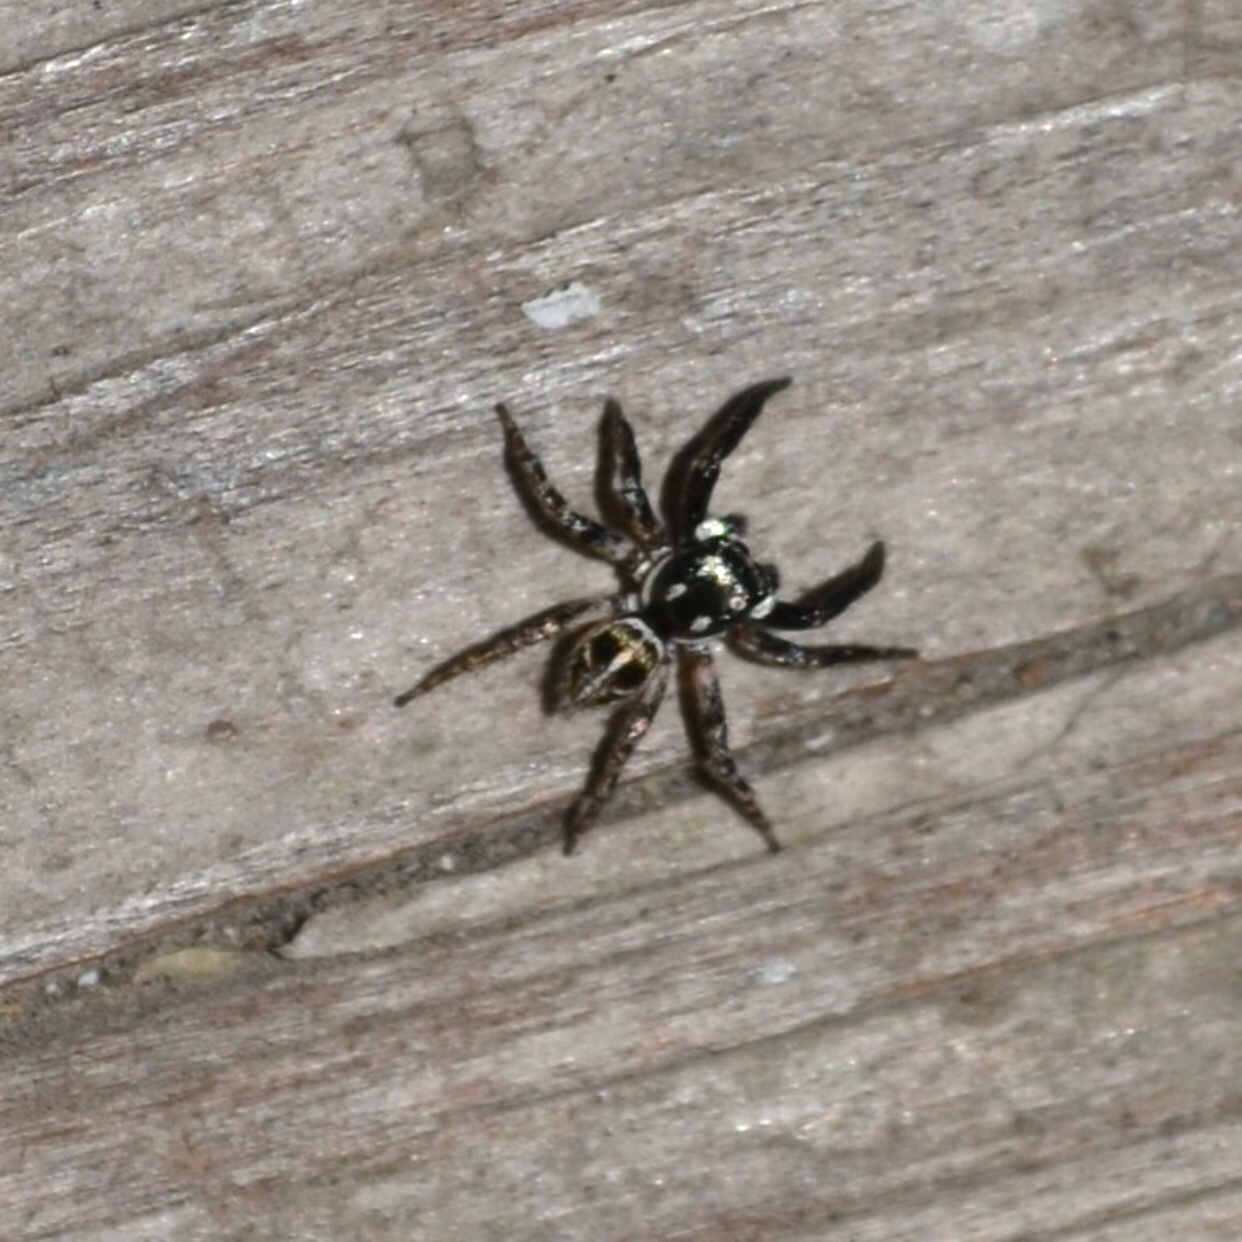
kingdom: Animalia
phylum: Arthropoda
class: Arachnida
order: Araneae
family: Salticidae
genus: Anasaitis
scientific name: Anasaitis canosa
